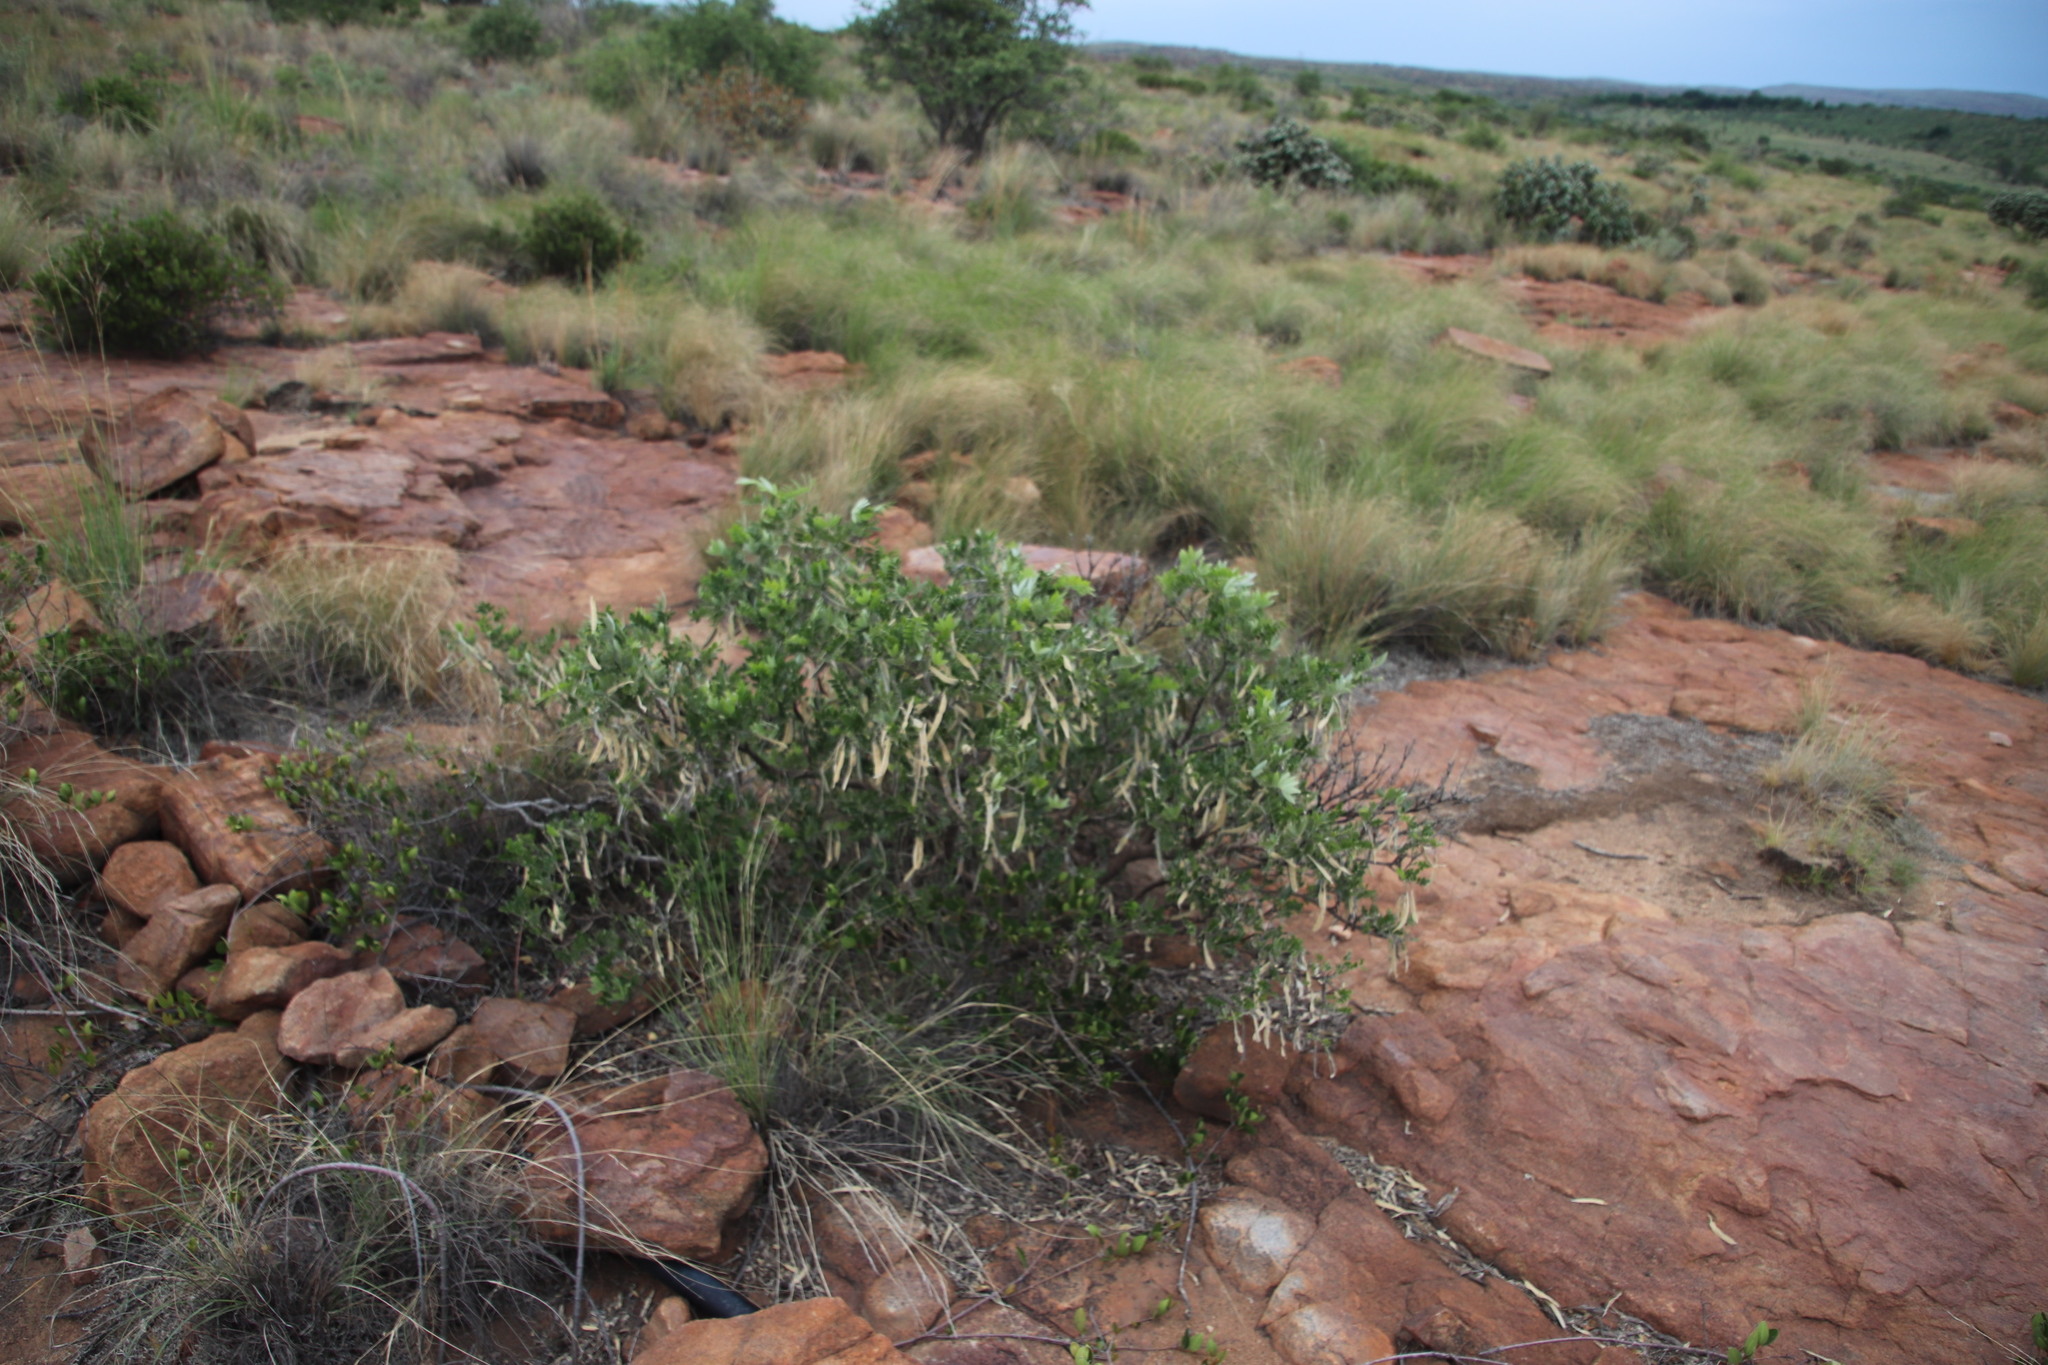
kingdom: Plantae
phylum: Tracheophyta
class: Magnoliopsida
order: Fabales
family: Fabaceae
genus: Mundulea
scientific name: Mundulea sericea
